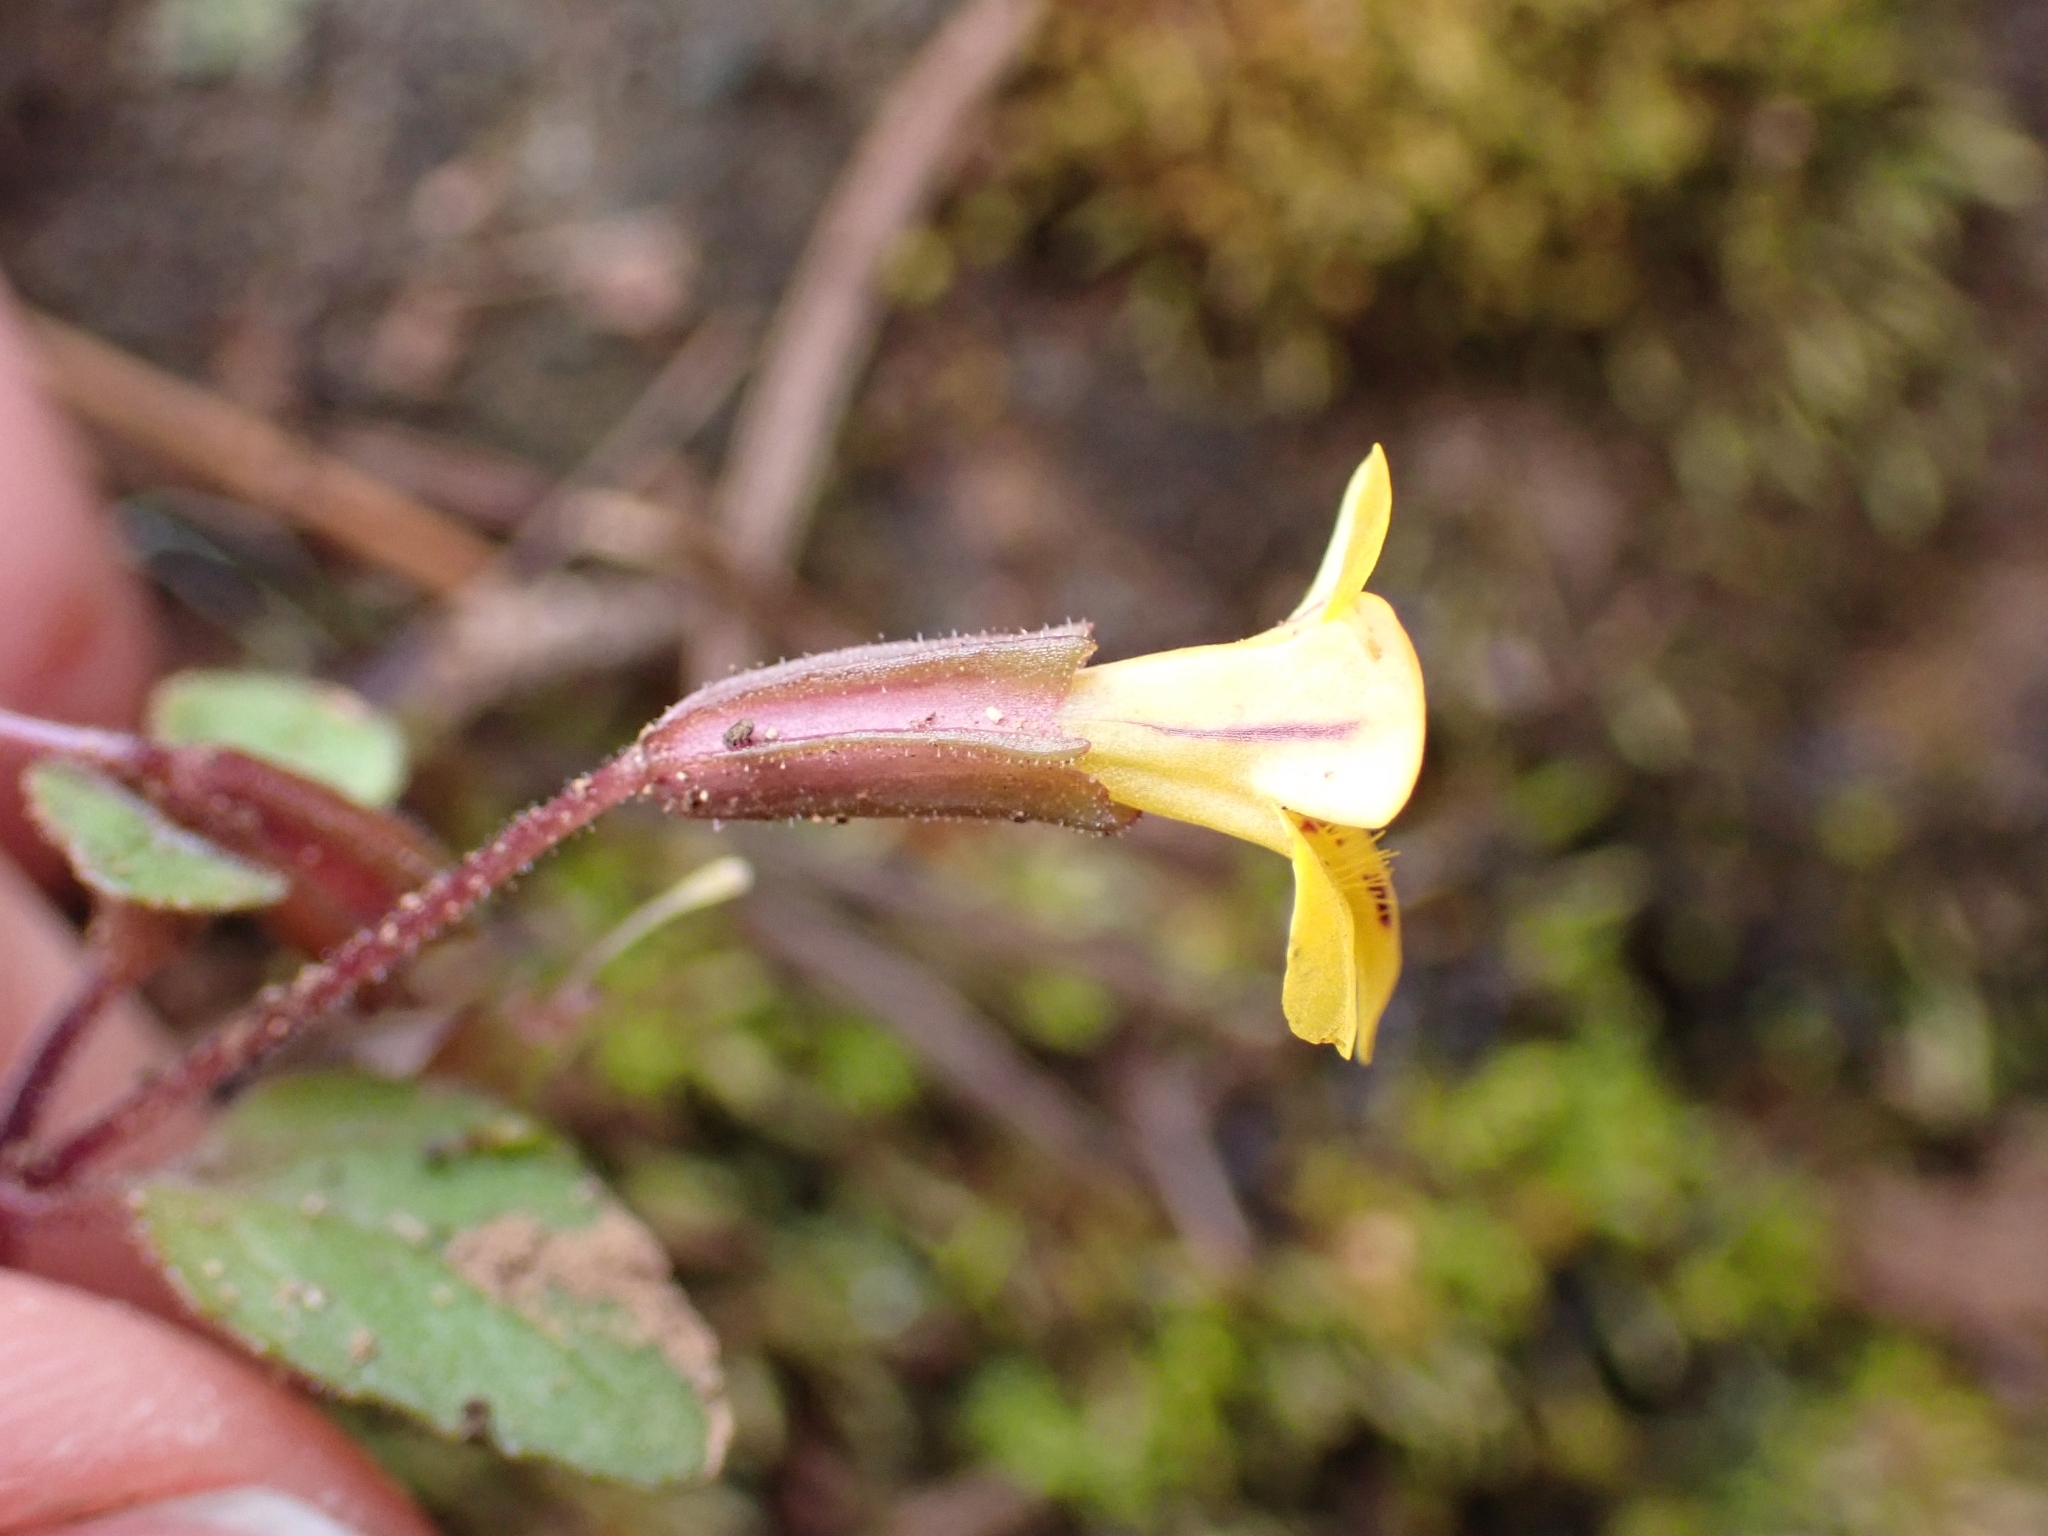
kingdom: Plantae
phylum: Tracheophyta
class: Magnoliopsida
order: Lamiales
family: Phrymaceae
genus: Erythranthe
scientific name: Erythranthe alsinoides
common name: Chickweed monkeyflower
